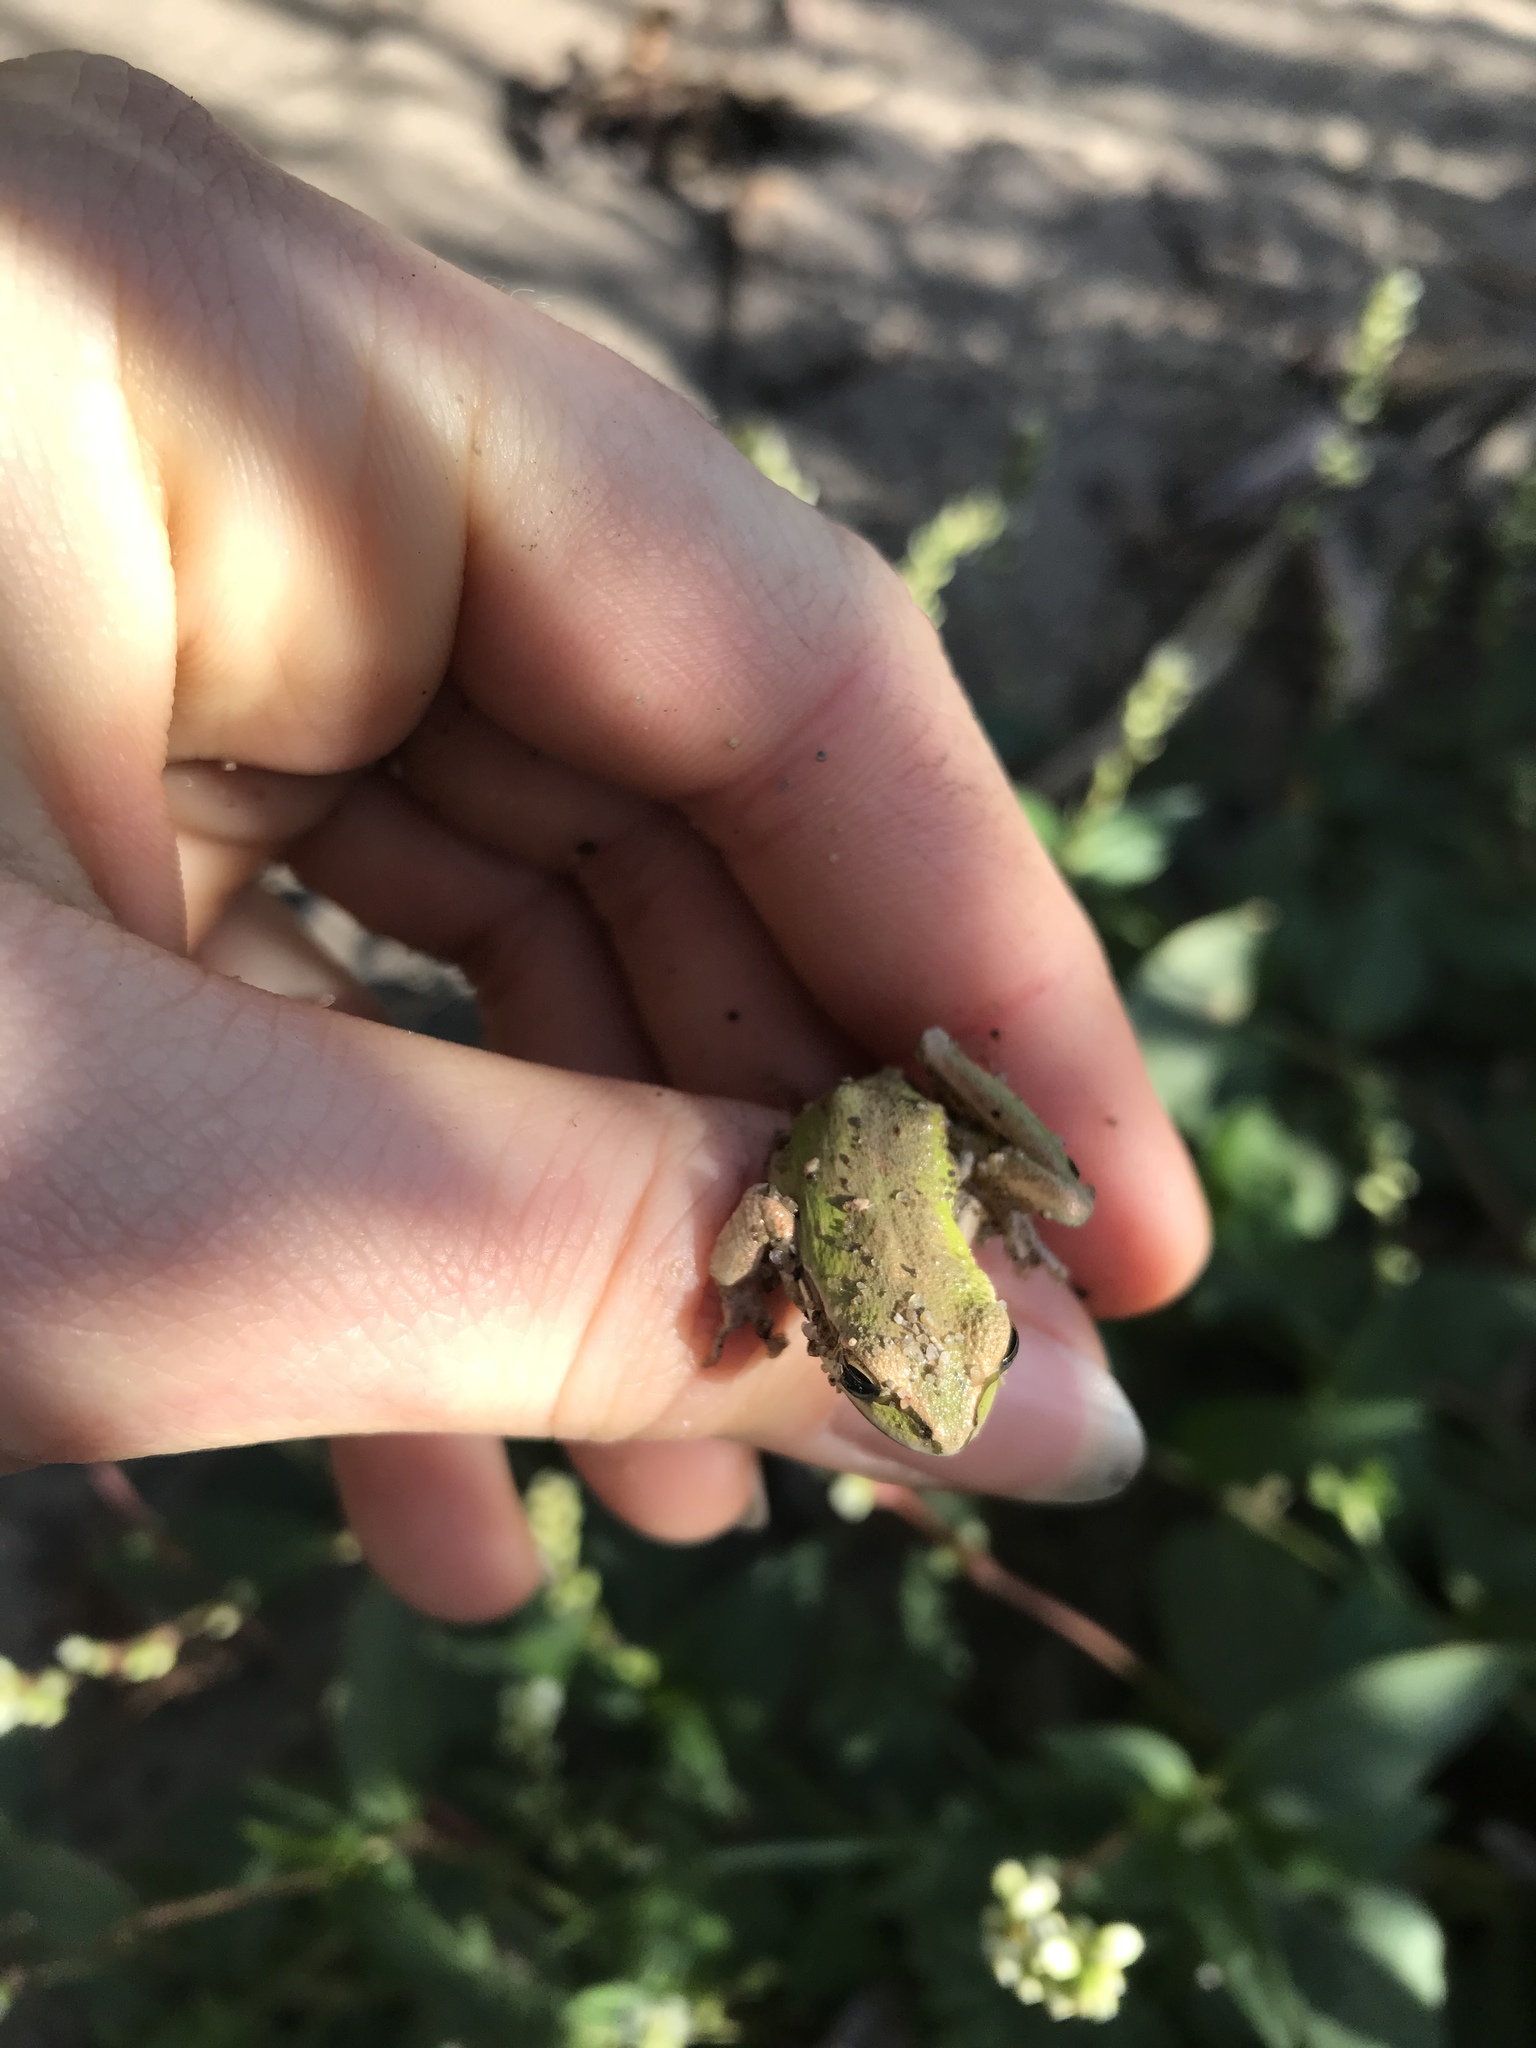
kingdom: Animalia
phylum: Chordata
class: Amphibia
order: Anura
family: Hylidae
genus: Pseudacris
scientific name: Pseudacris regilla
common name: Pacific chorus frog
